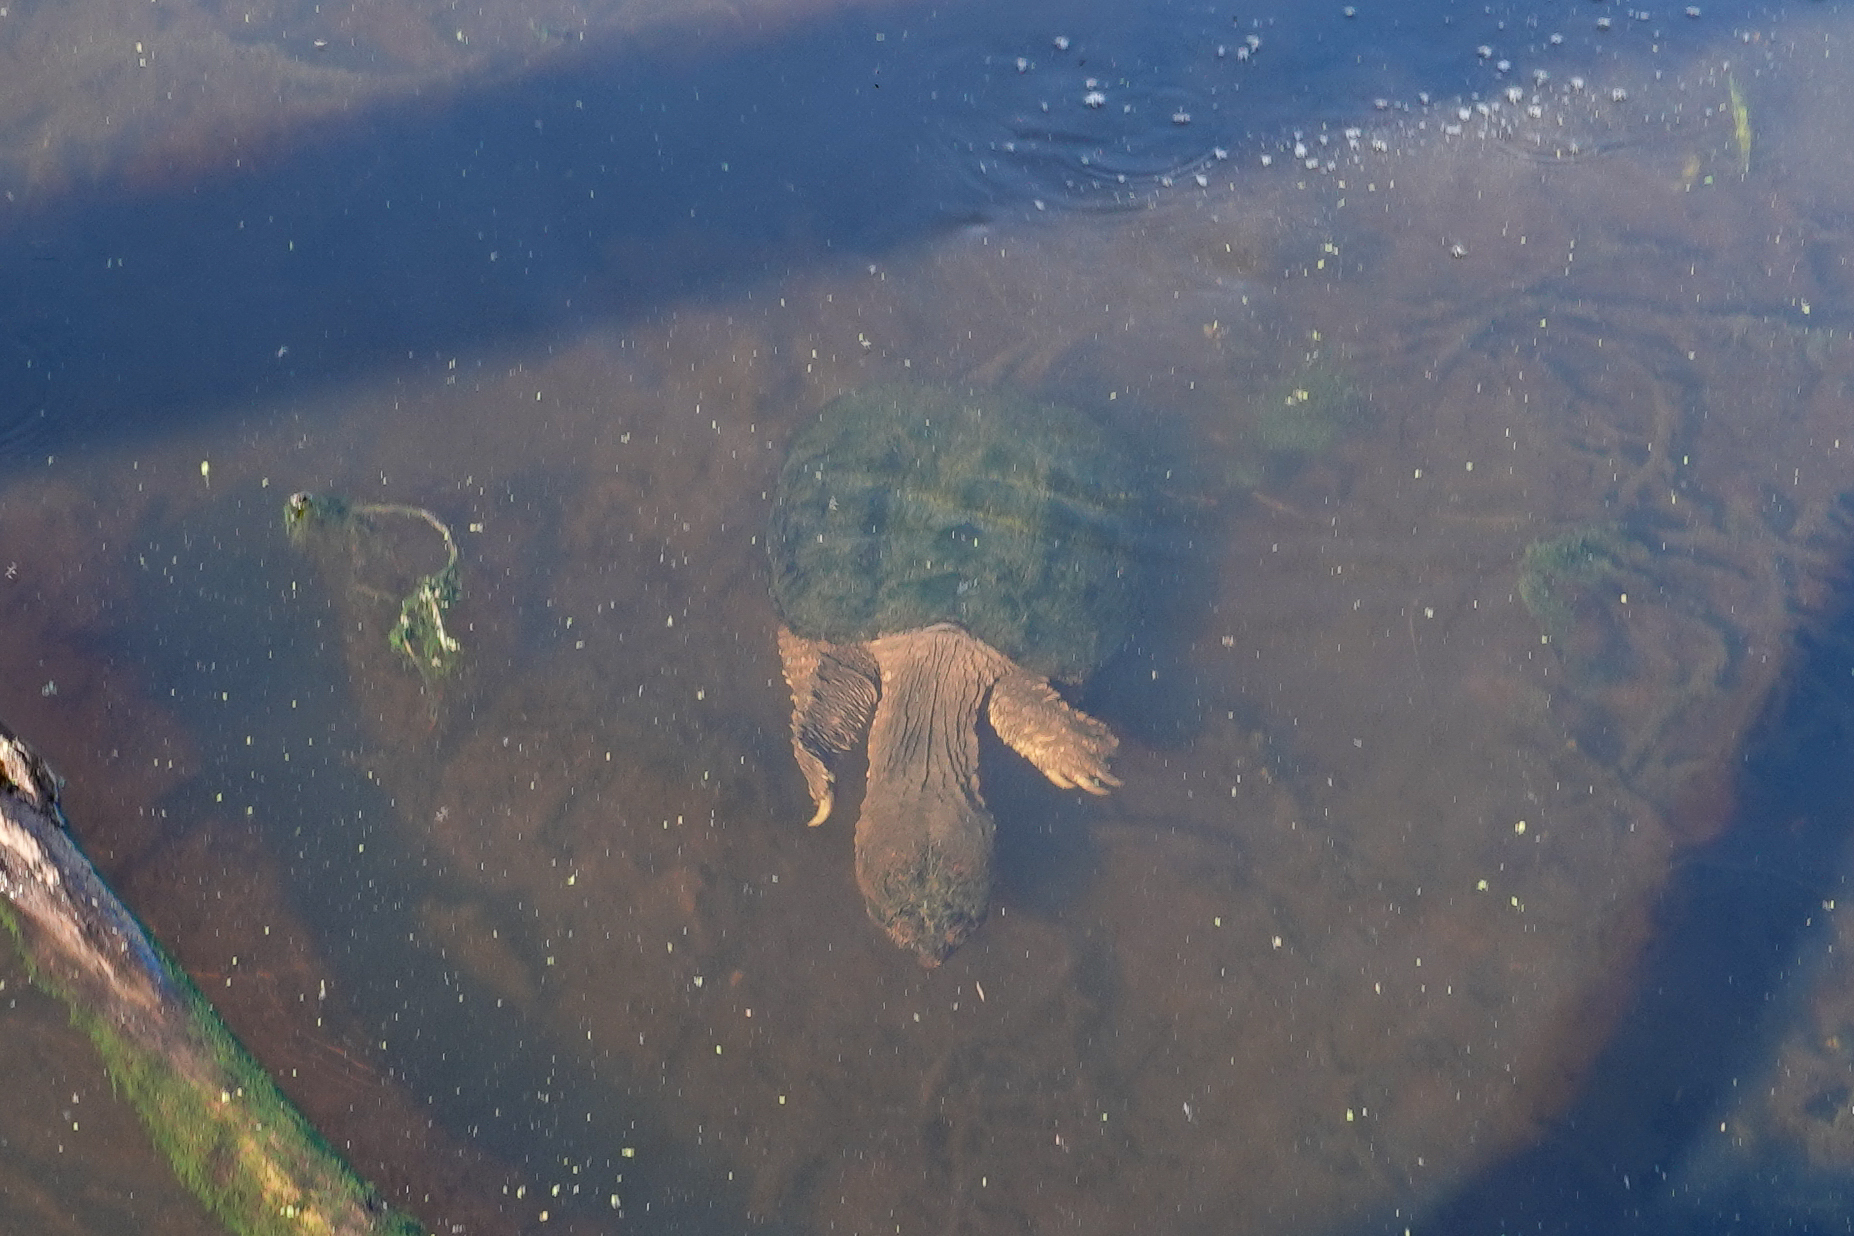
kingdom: Animalia
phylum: Chordata
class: Testudines
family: Chelydridae
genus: Chelydra
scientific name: Chelydra serpentina
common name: Common snapping turtle
